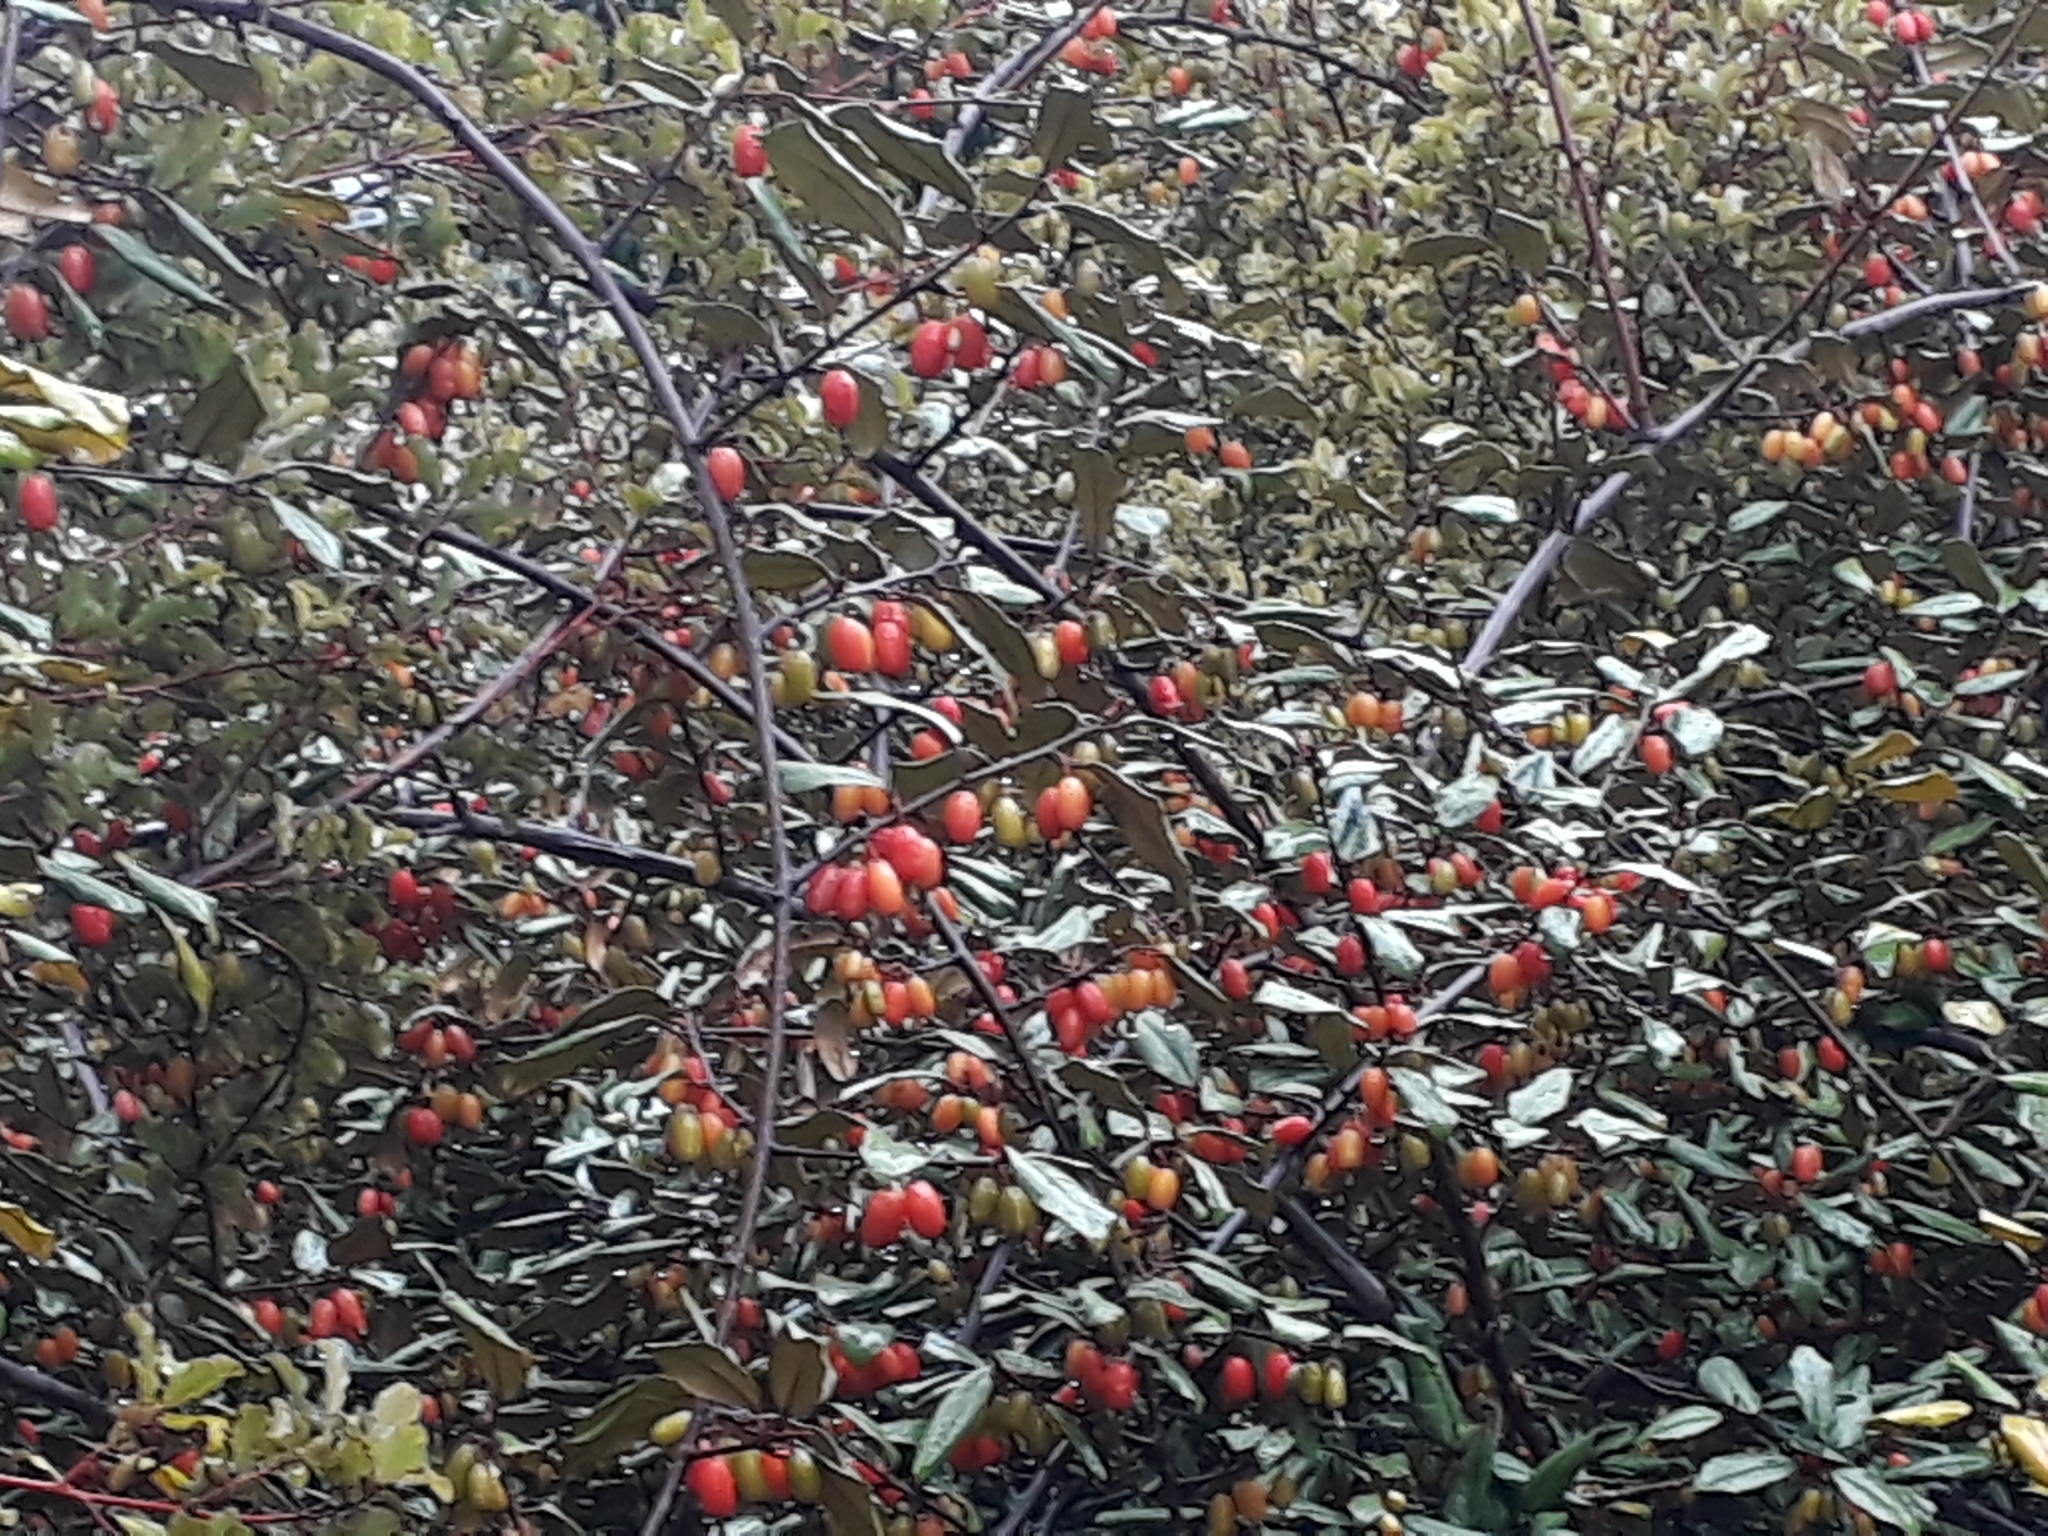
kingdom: Plantae
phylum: Tracheophyta
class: Magnoliopsida
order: Rosales
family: Elaeagnaceae
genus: Elaeagnus
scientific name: Elaeagnus reflexa
